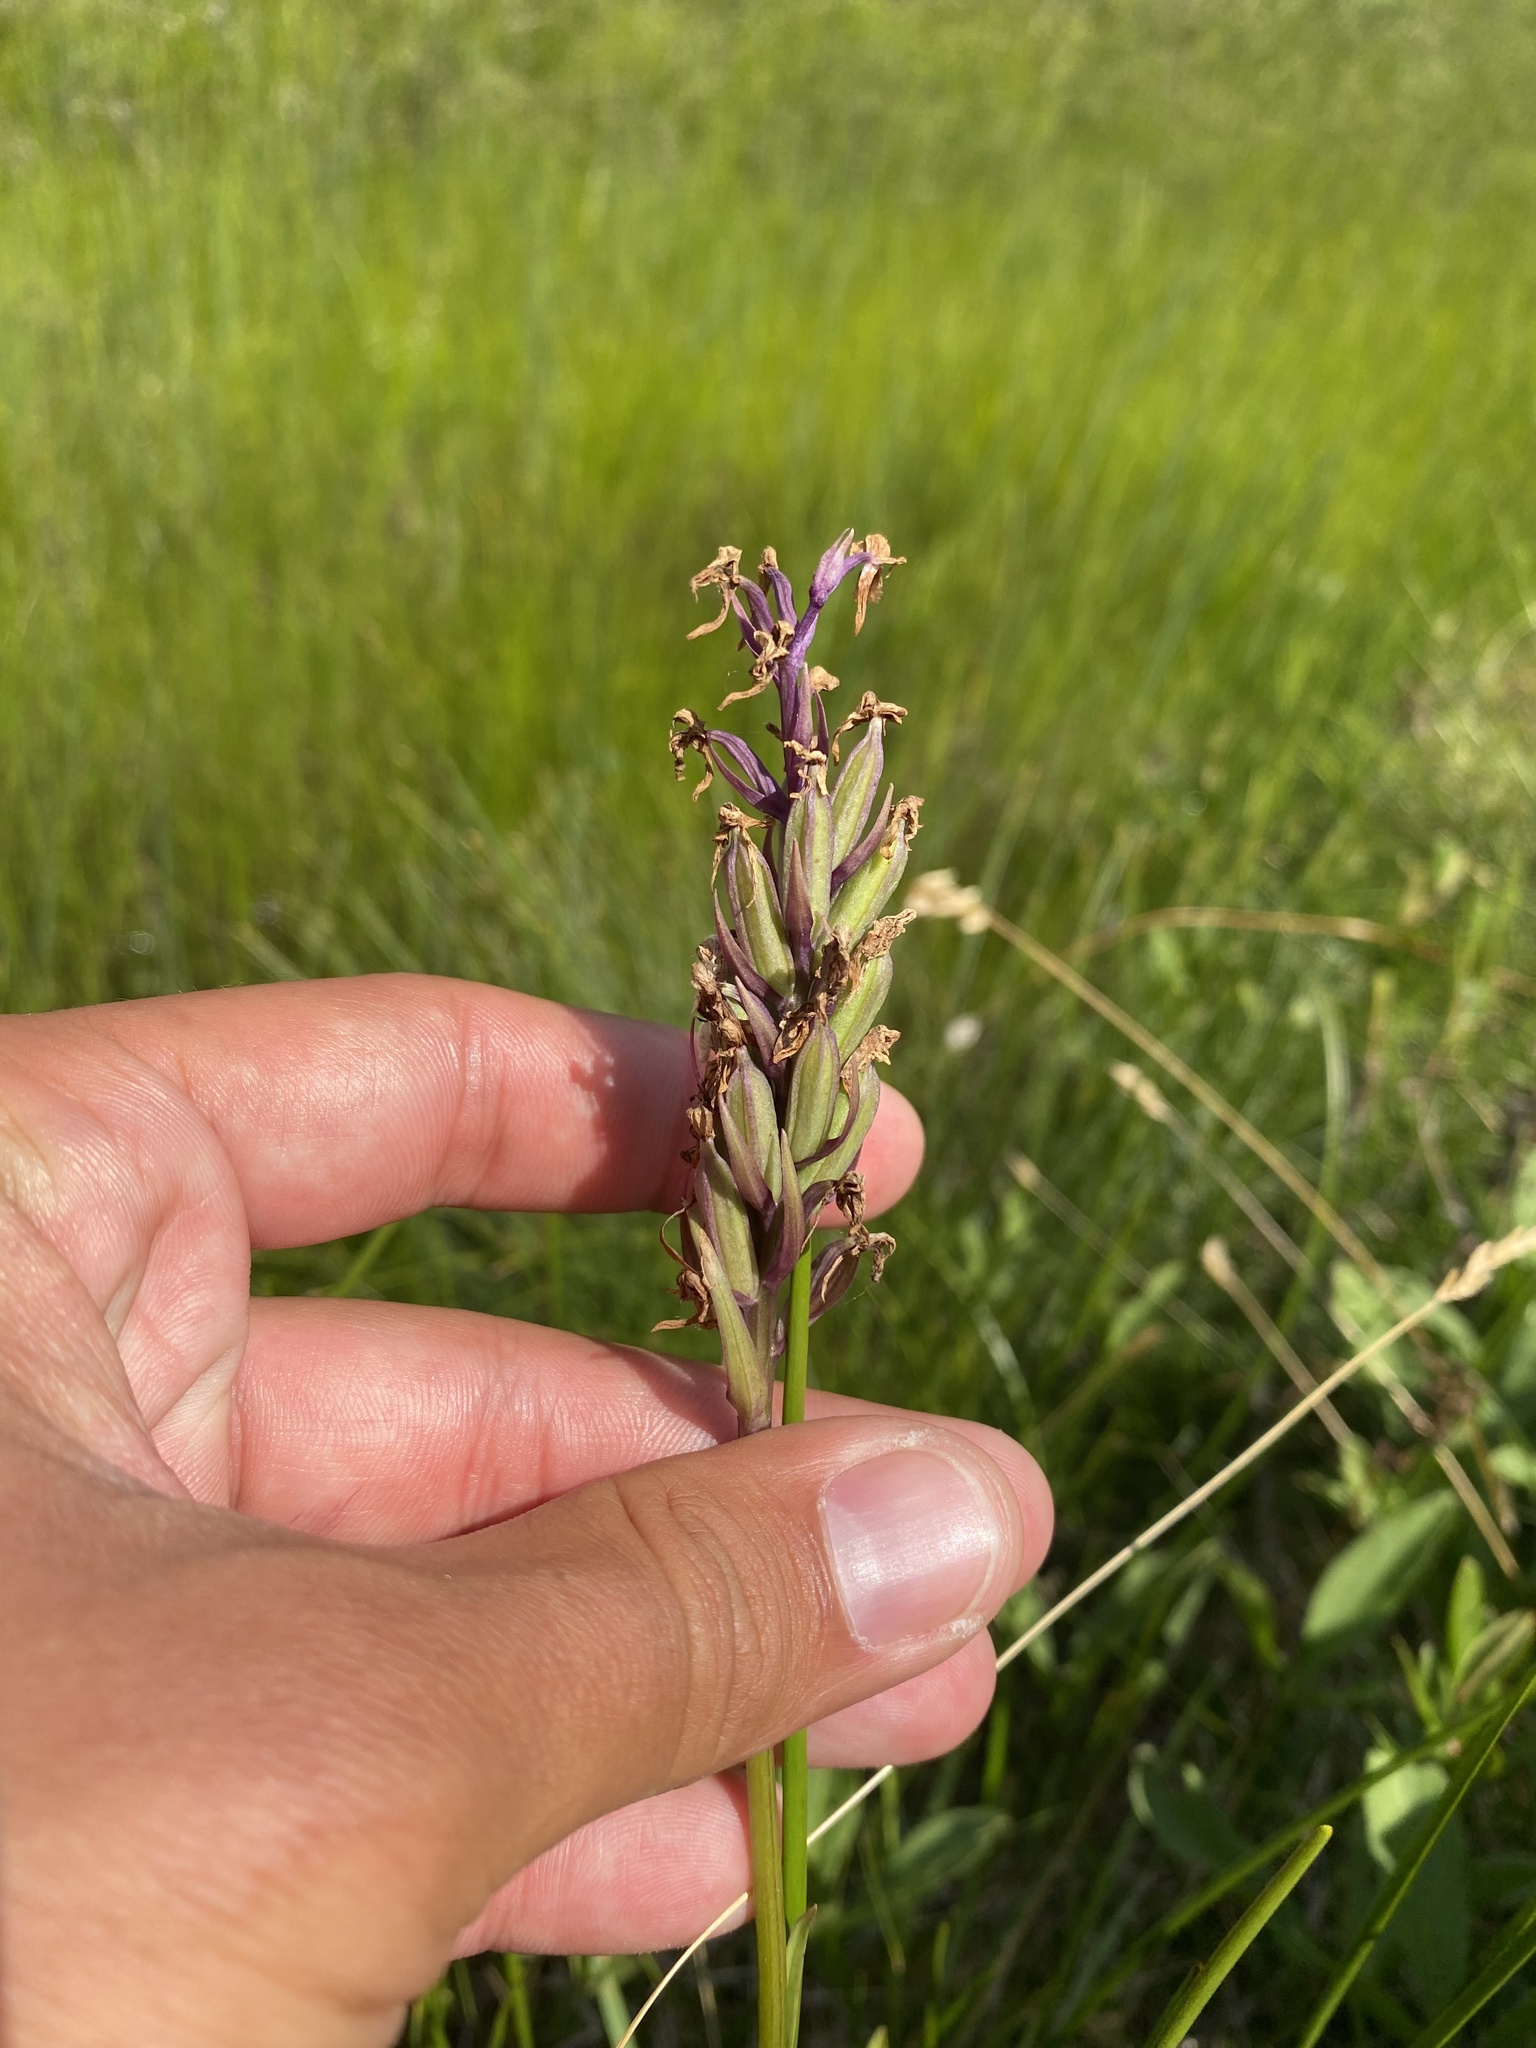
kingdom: Plantae
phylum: Tracheophyta
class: Liliopsida
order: Asparagales
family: Orchidaceae
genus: Dactylorhiza
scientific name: Dactylorhiza maculata
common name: Heath spotted-orchid
